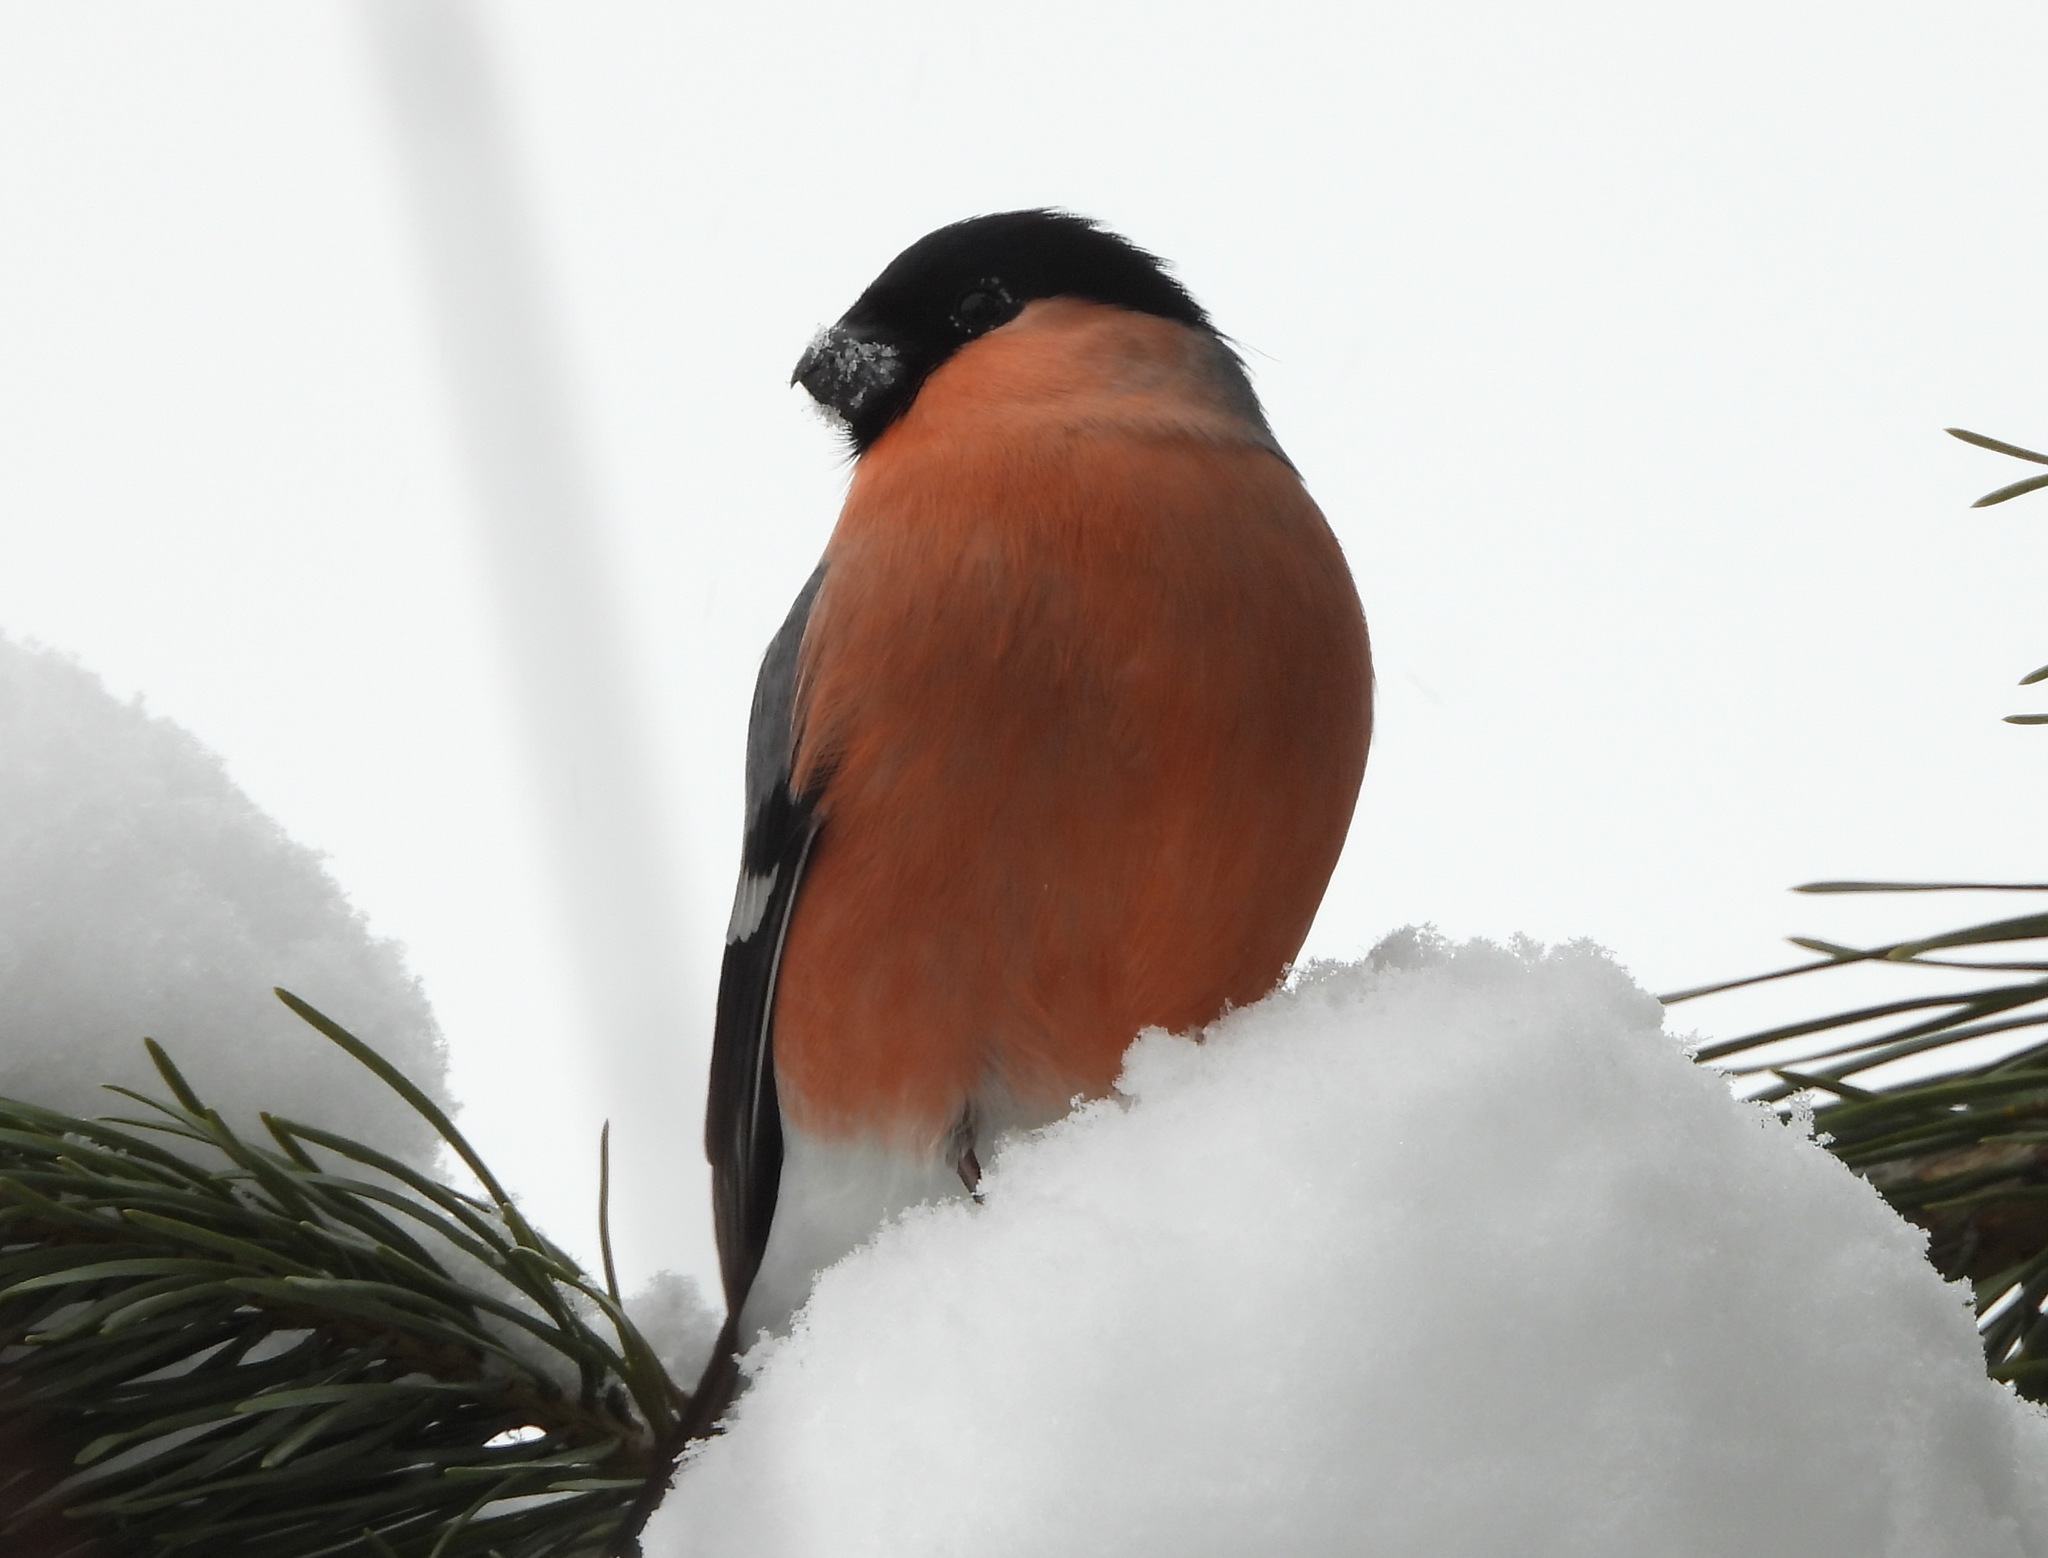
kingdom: Animalia
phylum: Chordata
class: Aves
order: Passeriformes
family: Fringillidae
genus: Pyrrhula
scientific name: Pyrrhula pyrrhula
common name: Eurasian bullfinch
